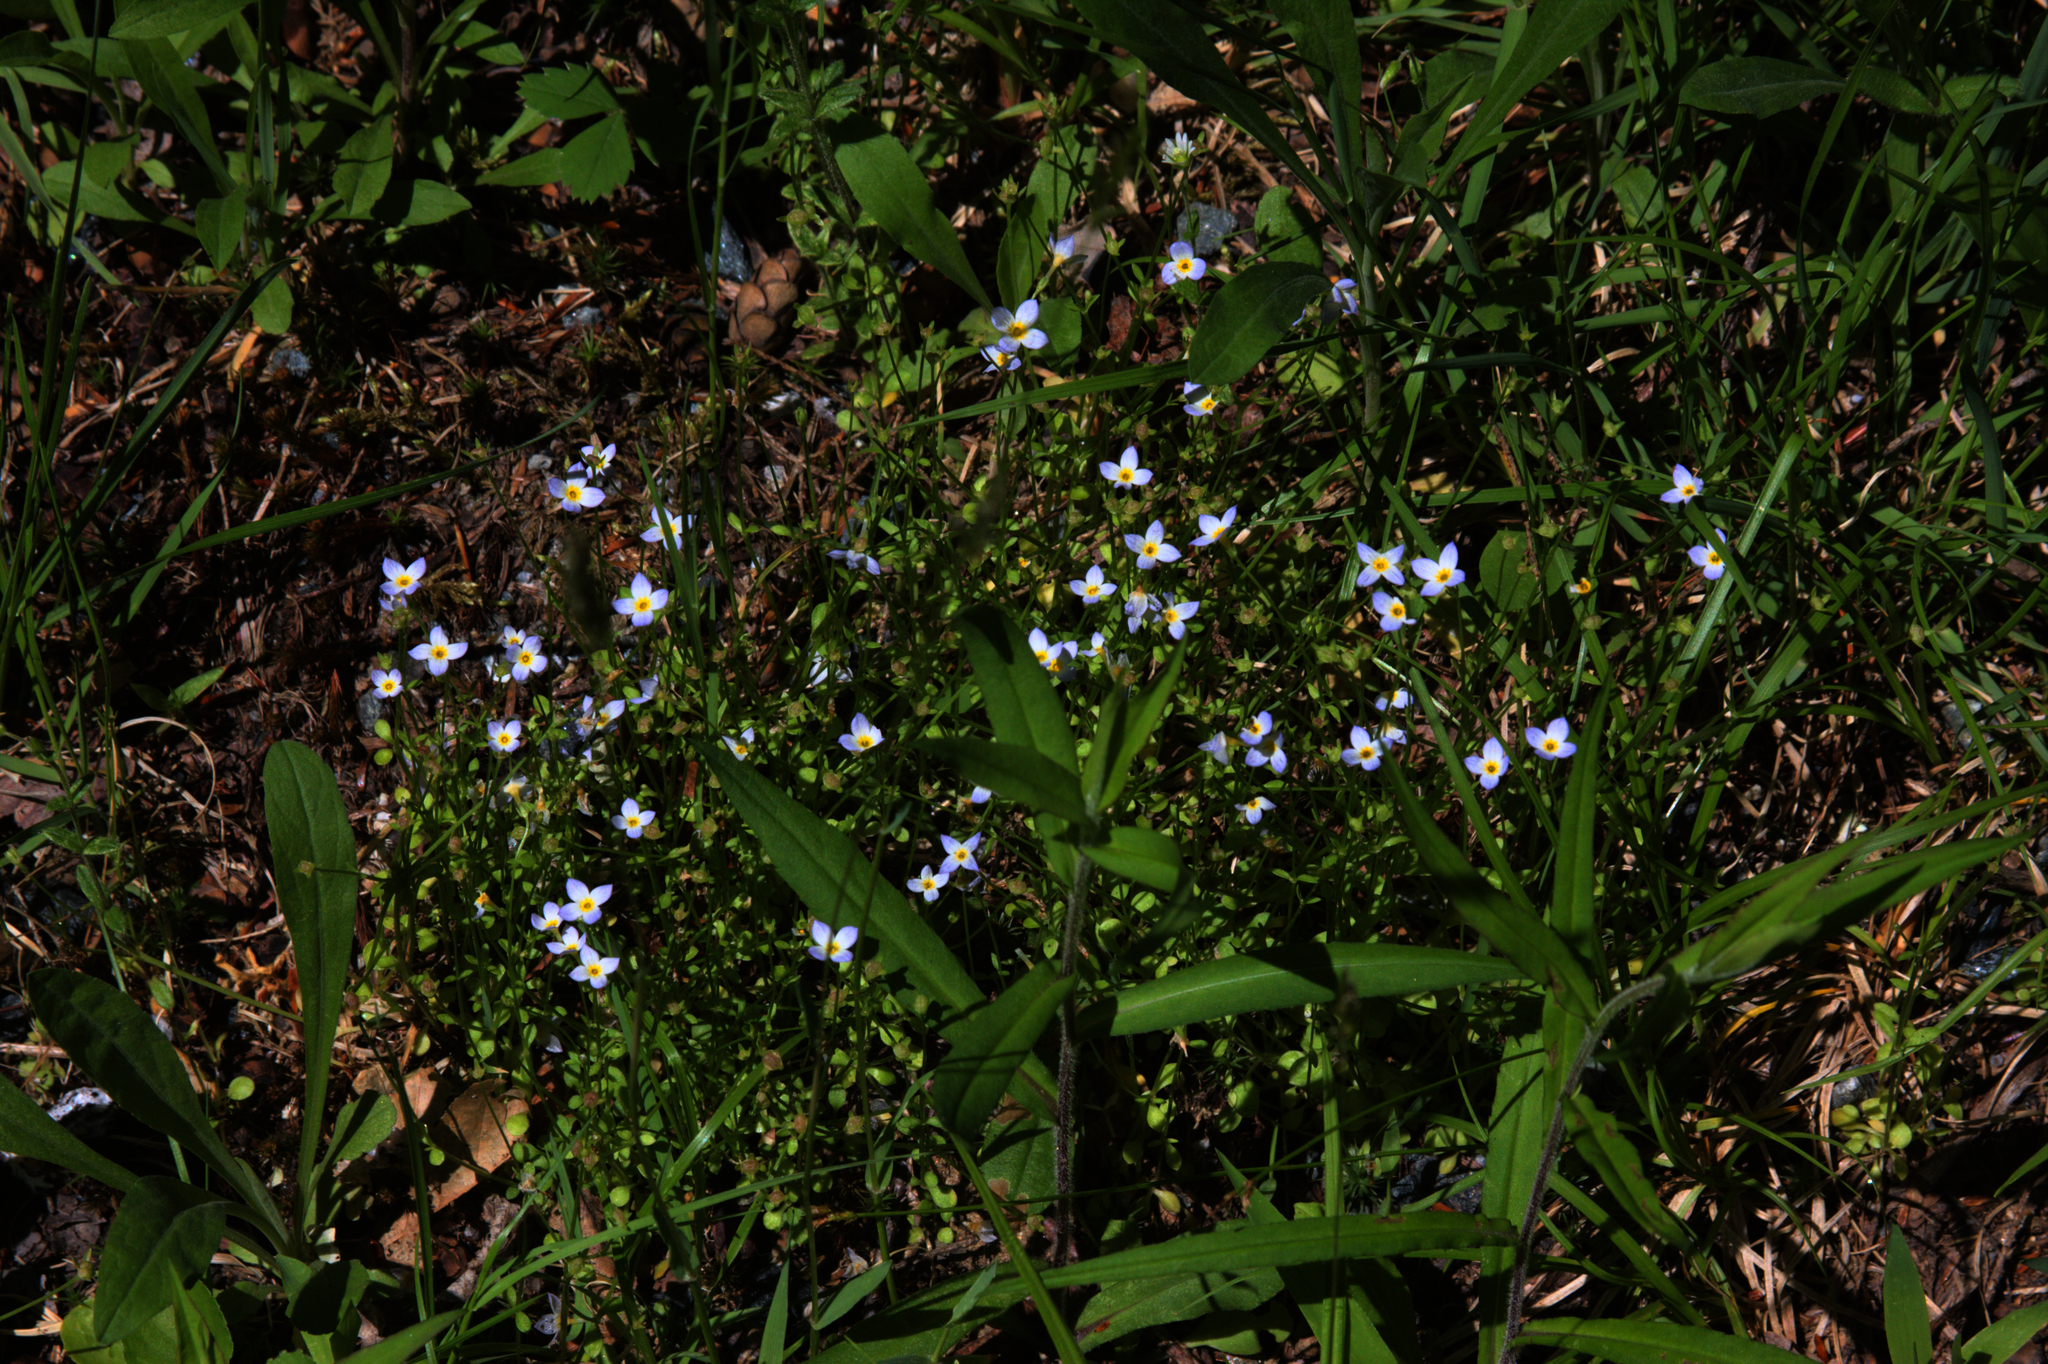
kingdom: Plantae
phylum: Tracheophyta
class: Magnoliopsida
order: Gentianales
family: Rubiaceae
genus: Houstonia
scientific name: Houstonia caerulea
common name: Bluets
